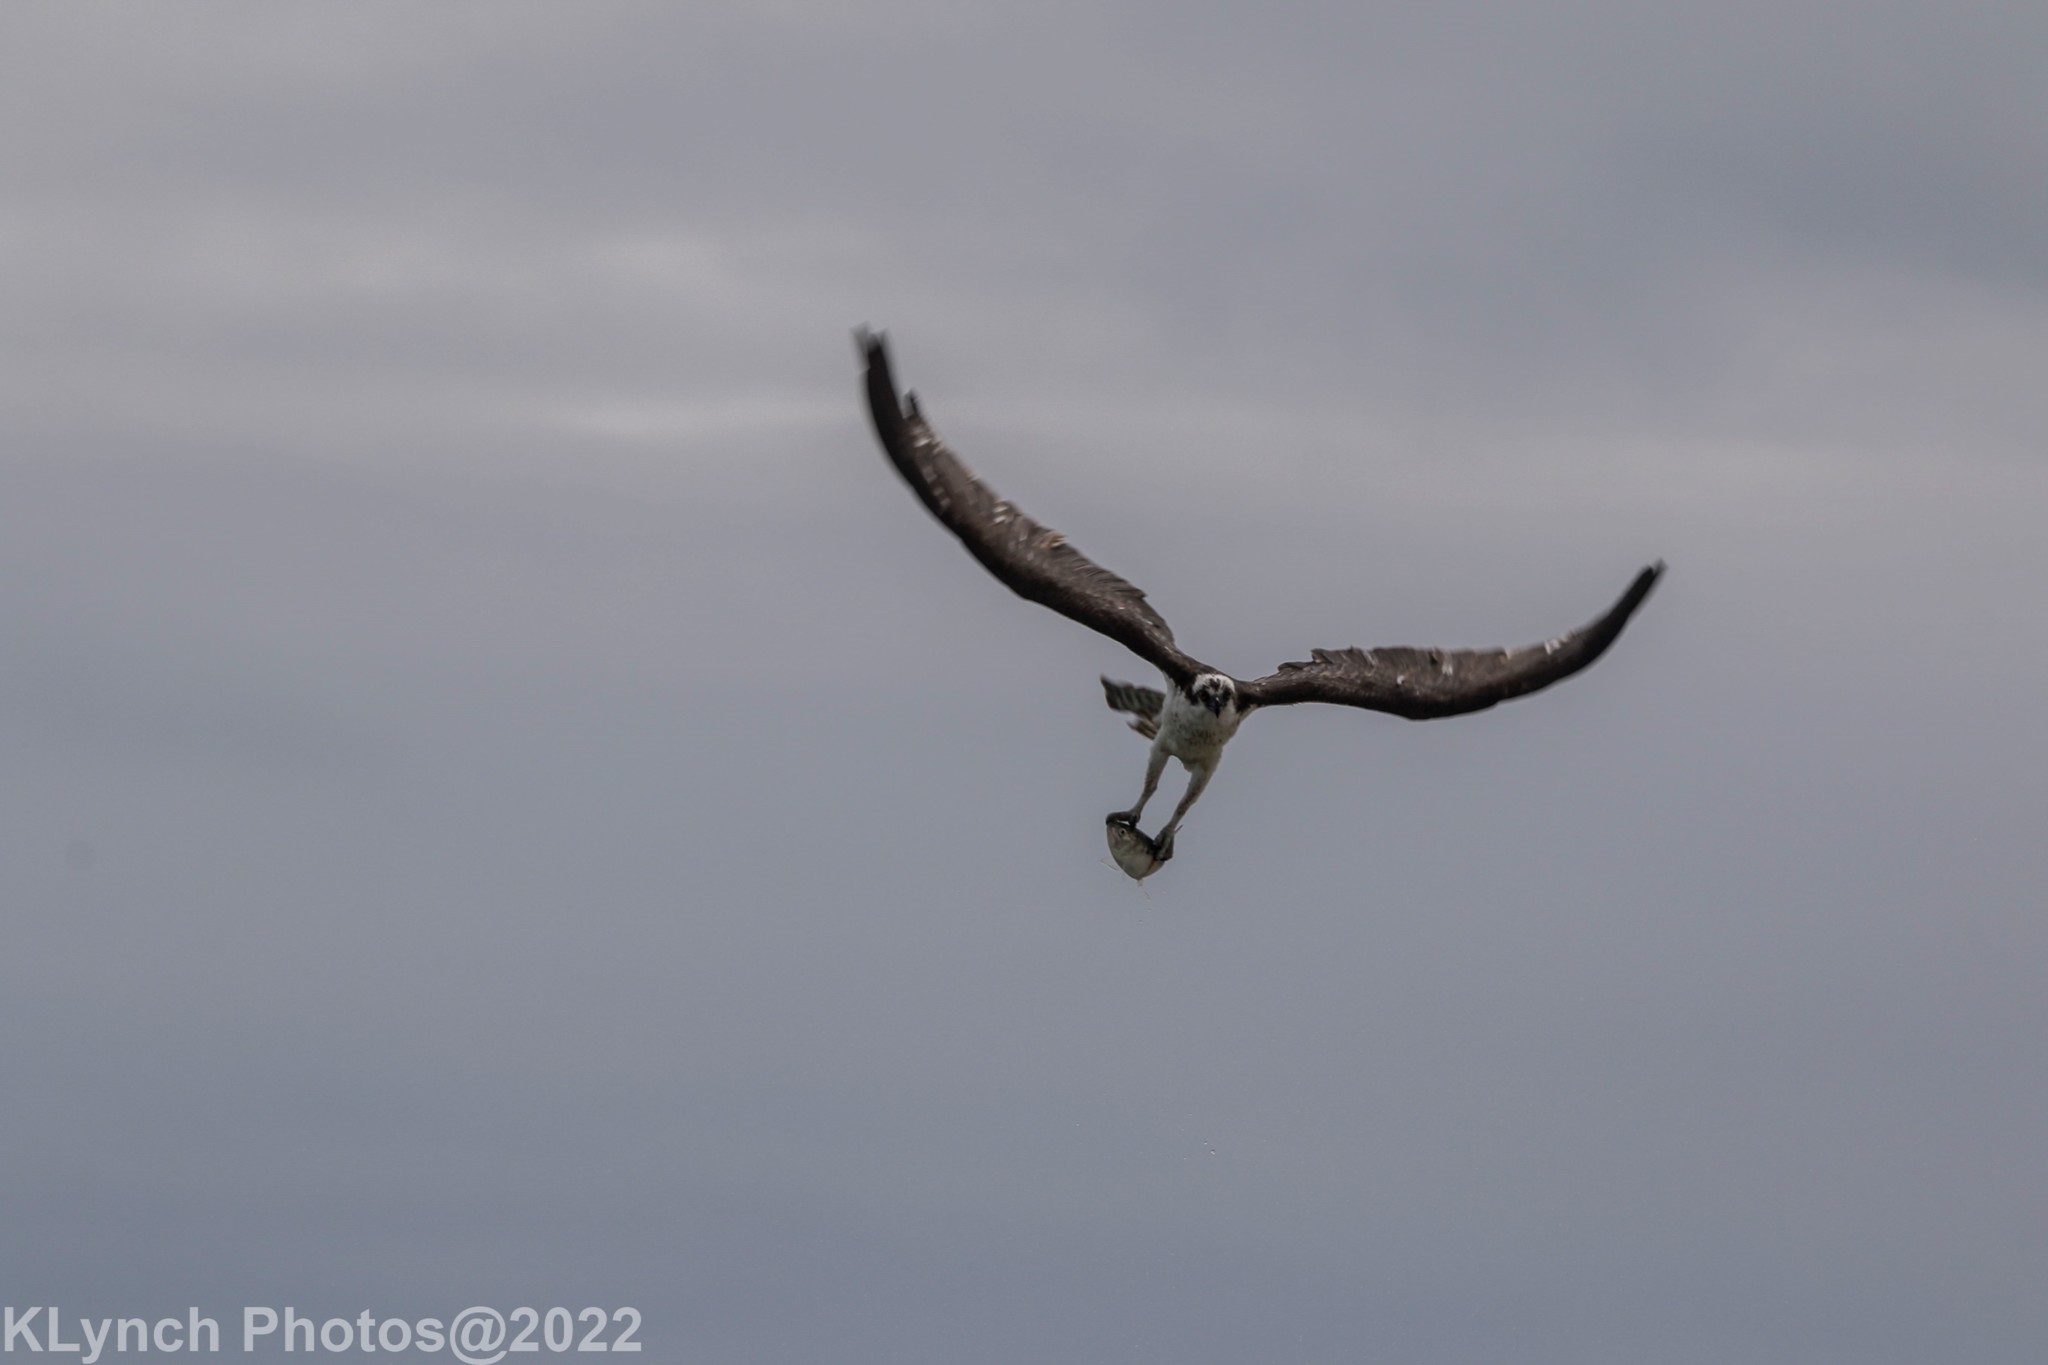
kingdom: Animalia
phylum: Chordata
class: Aves
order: Accipitriformes
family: Pandionidae
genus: Pandion
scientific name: Pandion haliaetus
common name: Osprey
